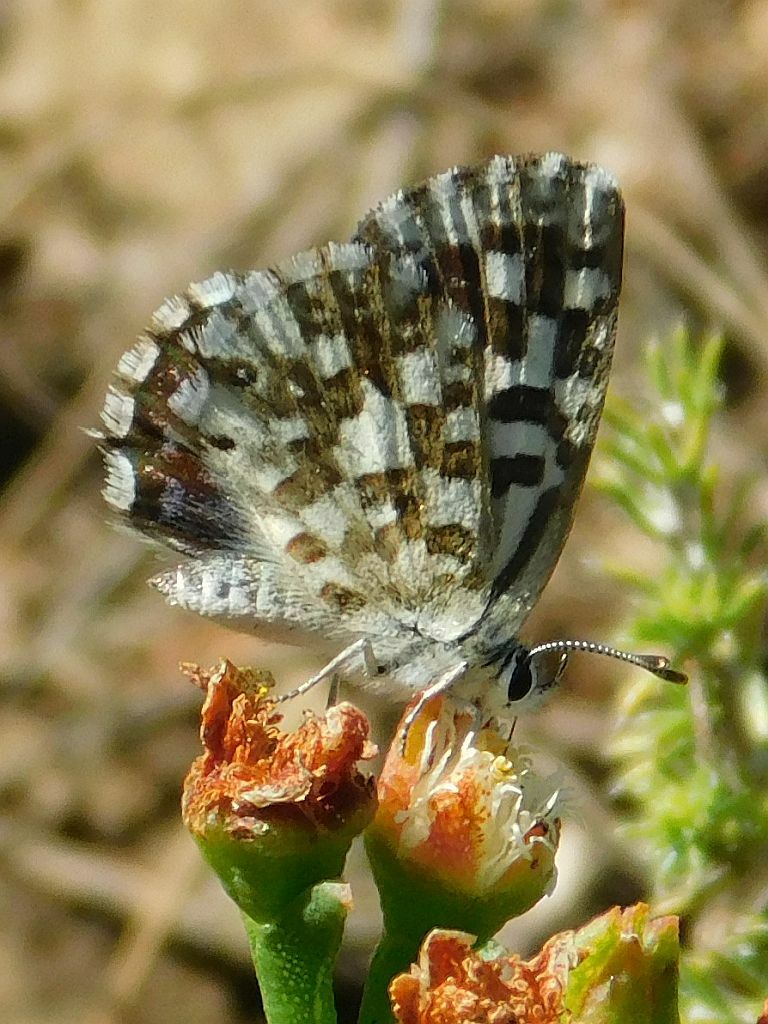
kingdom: Animalia
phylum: Arthropoda
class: Insecta
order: Lepidoptera
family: Lycaenidae
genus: Tarucus
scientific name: Tarucus thespis
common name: Vivid dotted blue
